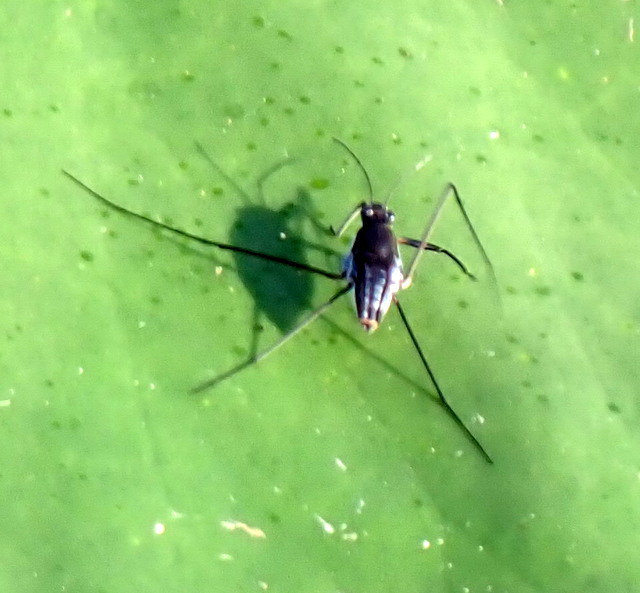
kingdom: Animalia
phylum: Arthropoda
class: Insecta
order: Hemiptera
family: Gerridae
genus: Neogerris
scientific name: Neogerris hesione
